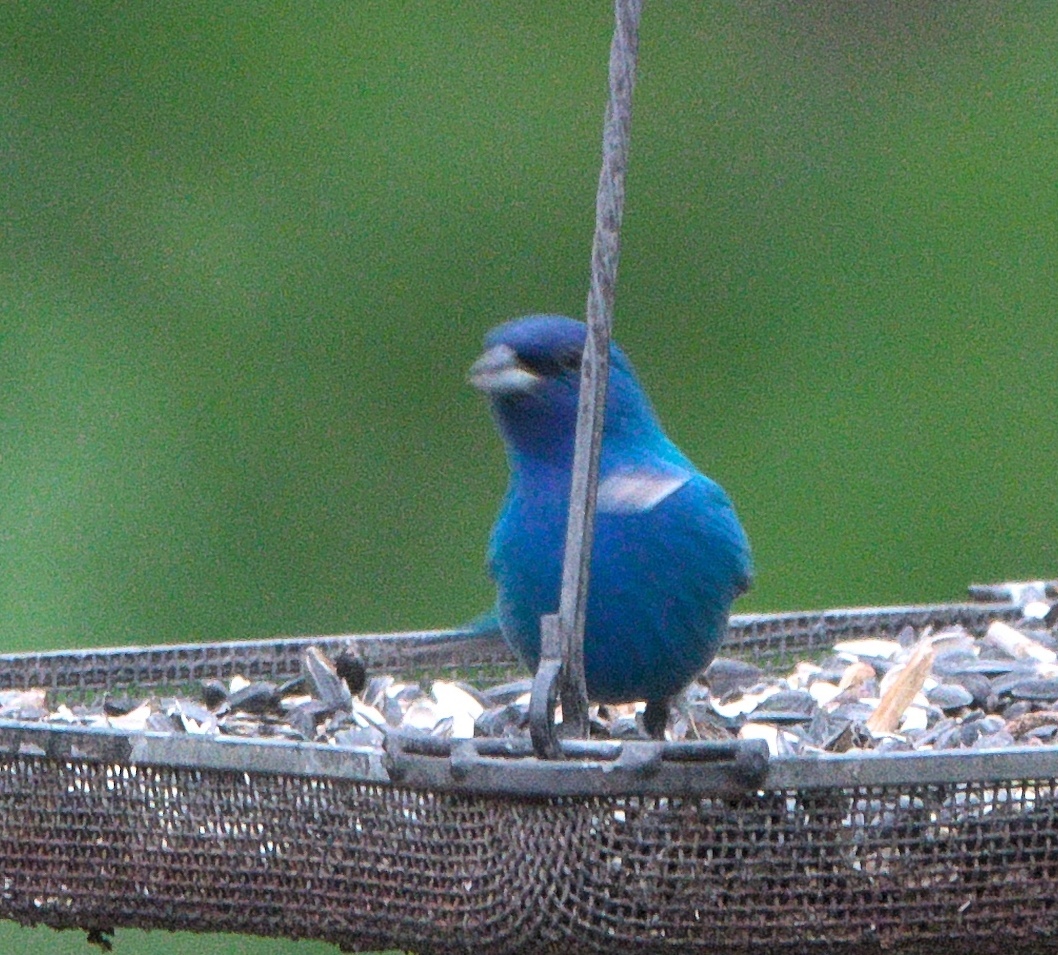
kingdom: Animalia
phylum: Chordata
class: Aves
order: Passeriformes
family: Cardinalidae
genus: Passerina
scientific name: Passerina cyanea
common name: Indigo bunting
